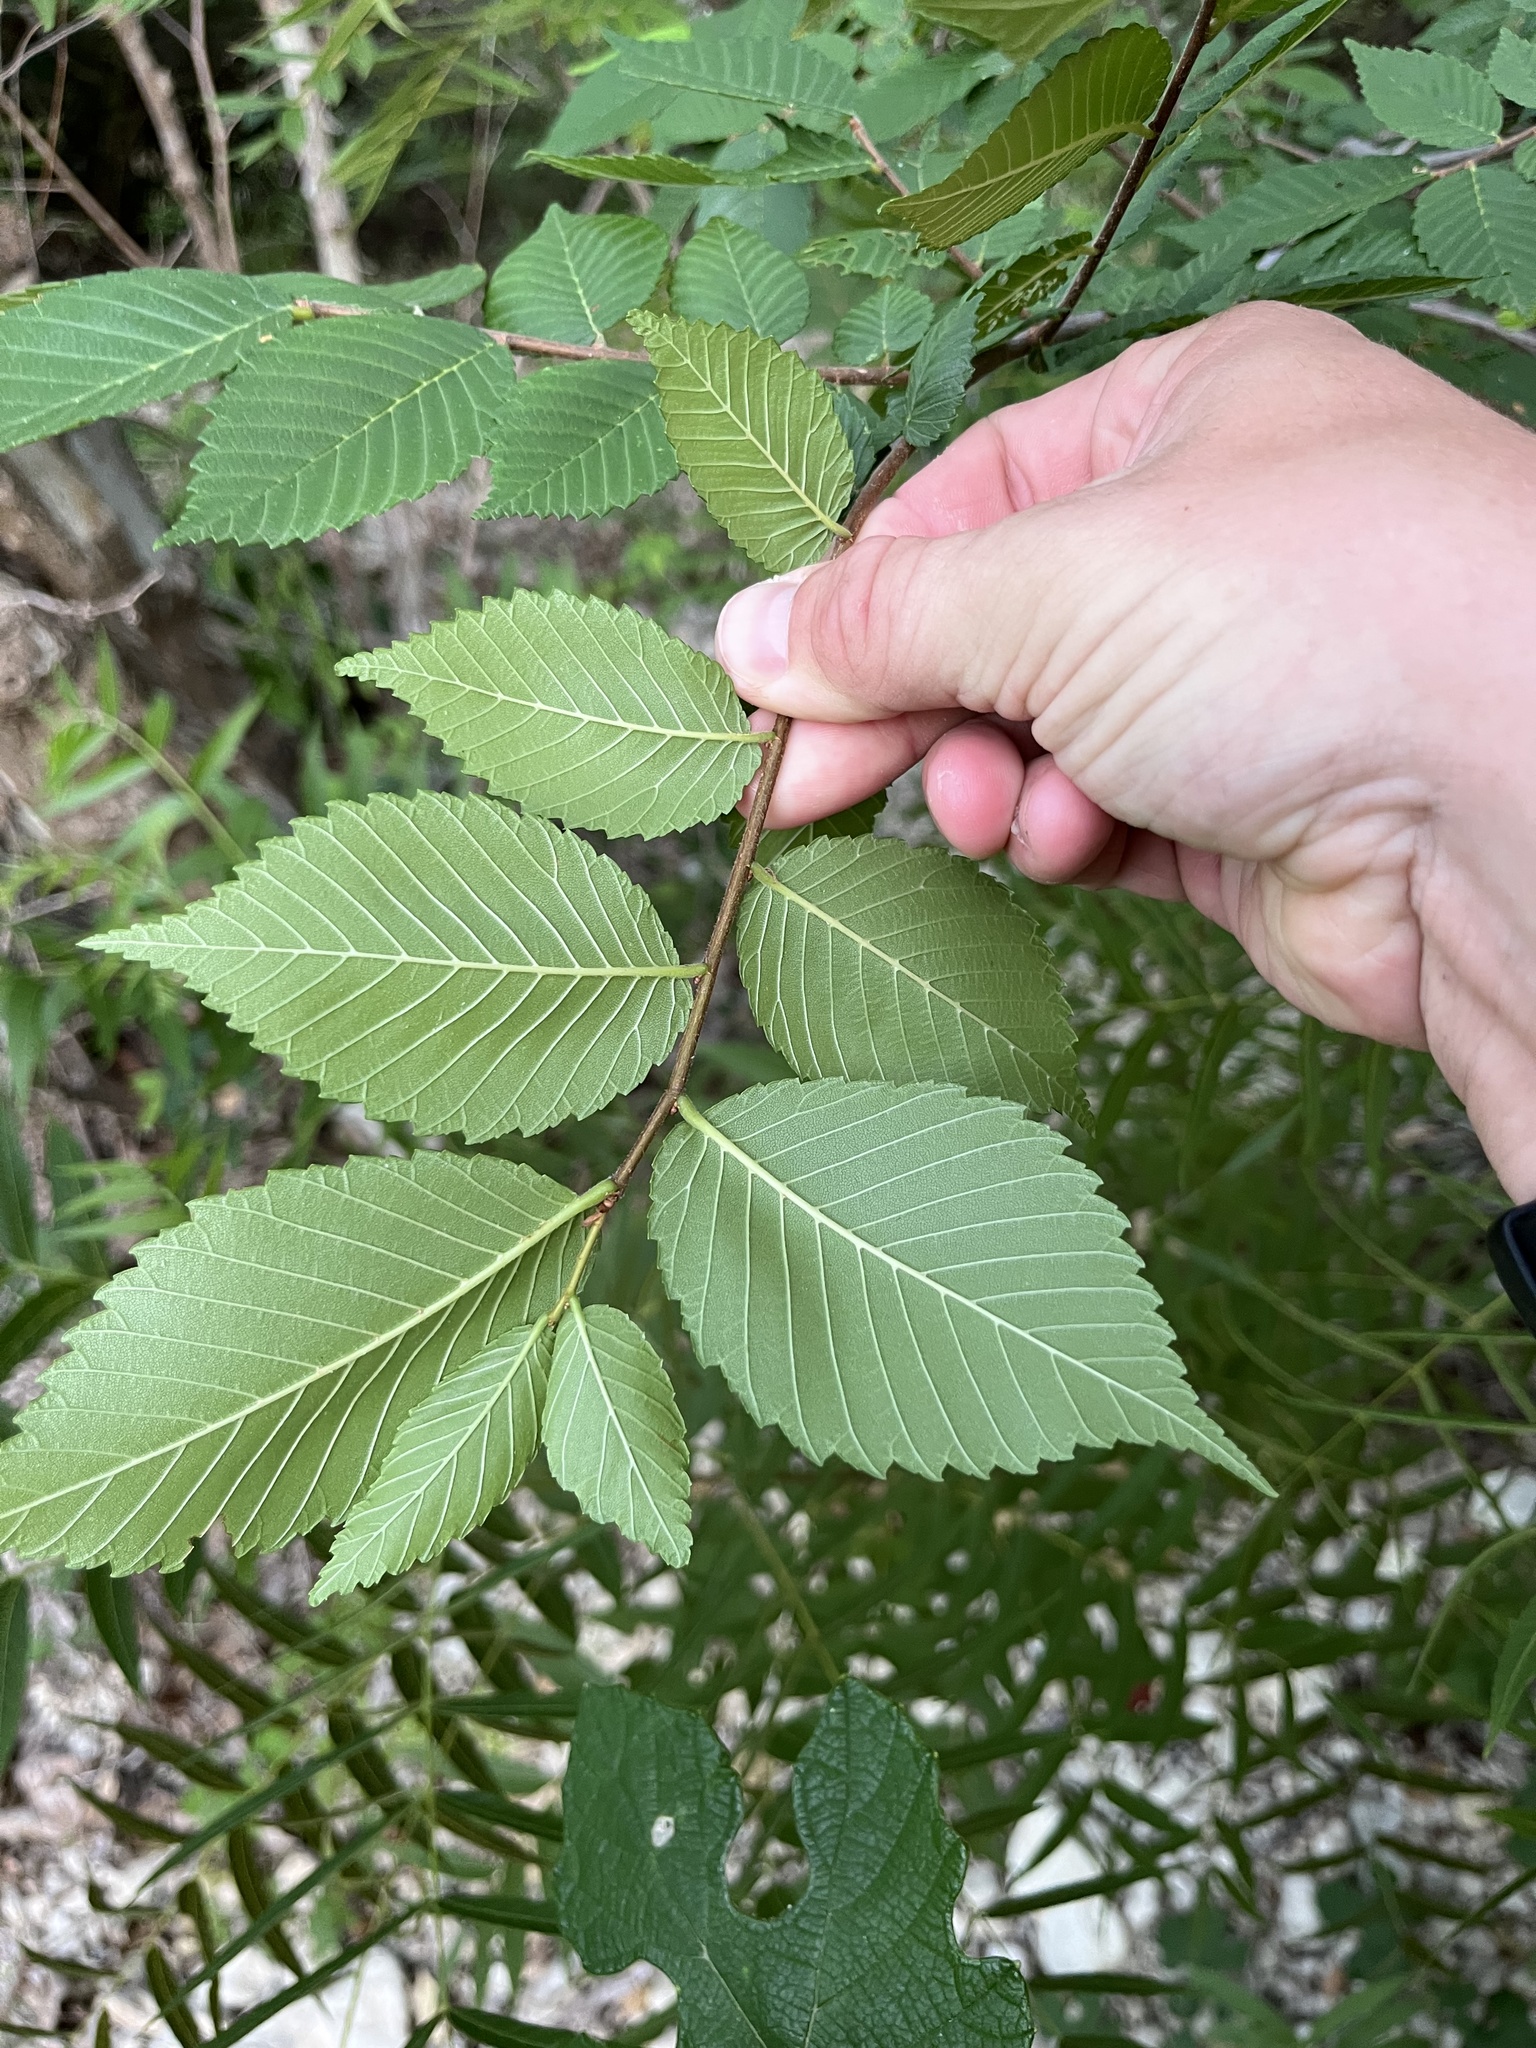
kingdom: Plantae
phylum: Tracheophyta
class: Magnoliopsida
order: Rosales
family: Ulmaceae
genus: Ulmus
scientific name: Ulmus americana
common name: American elm
